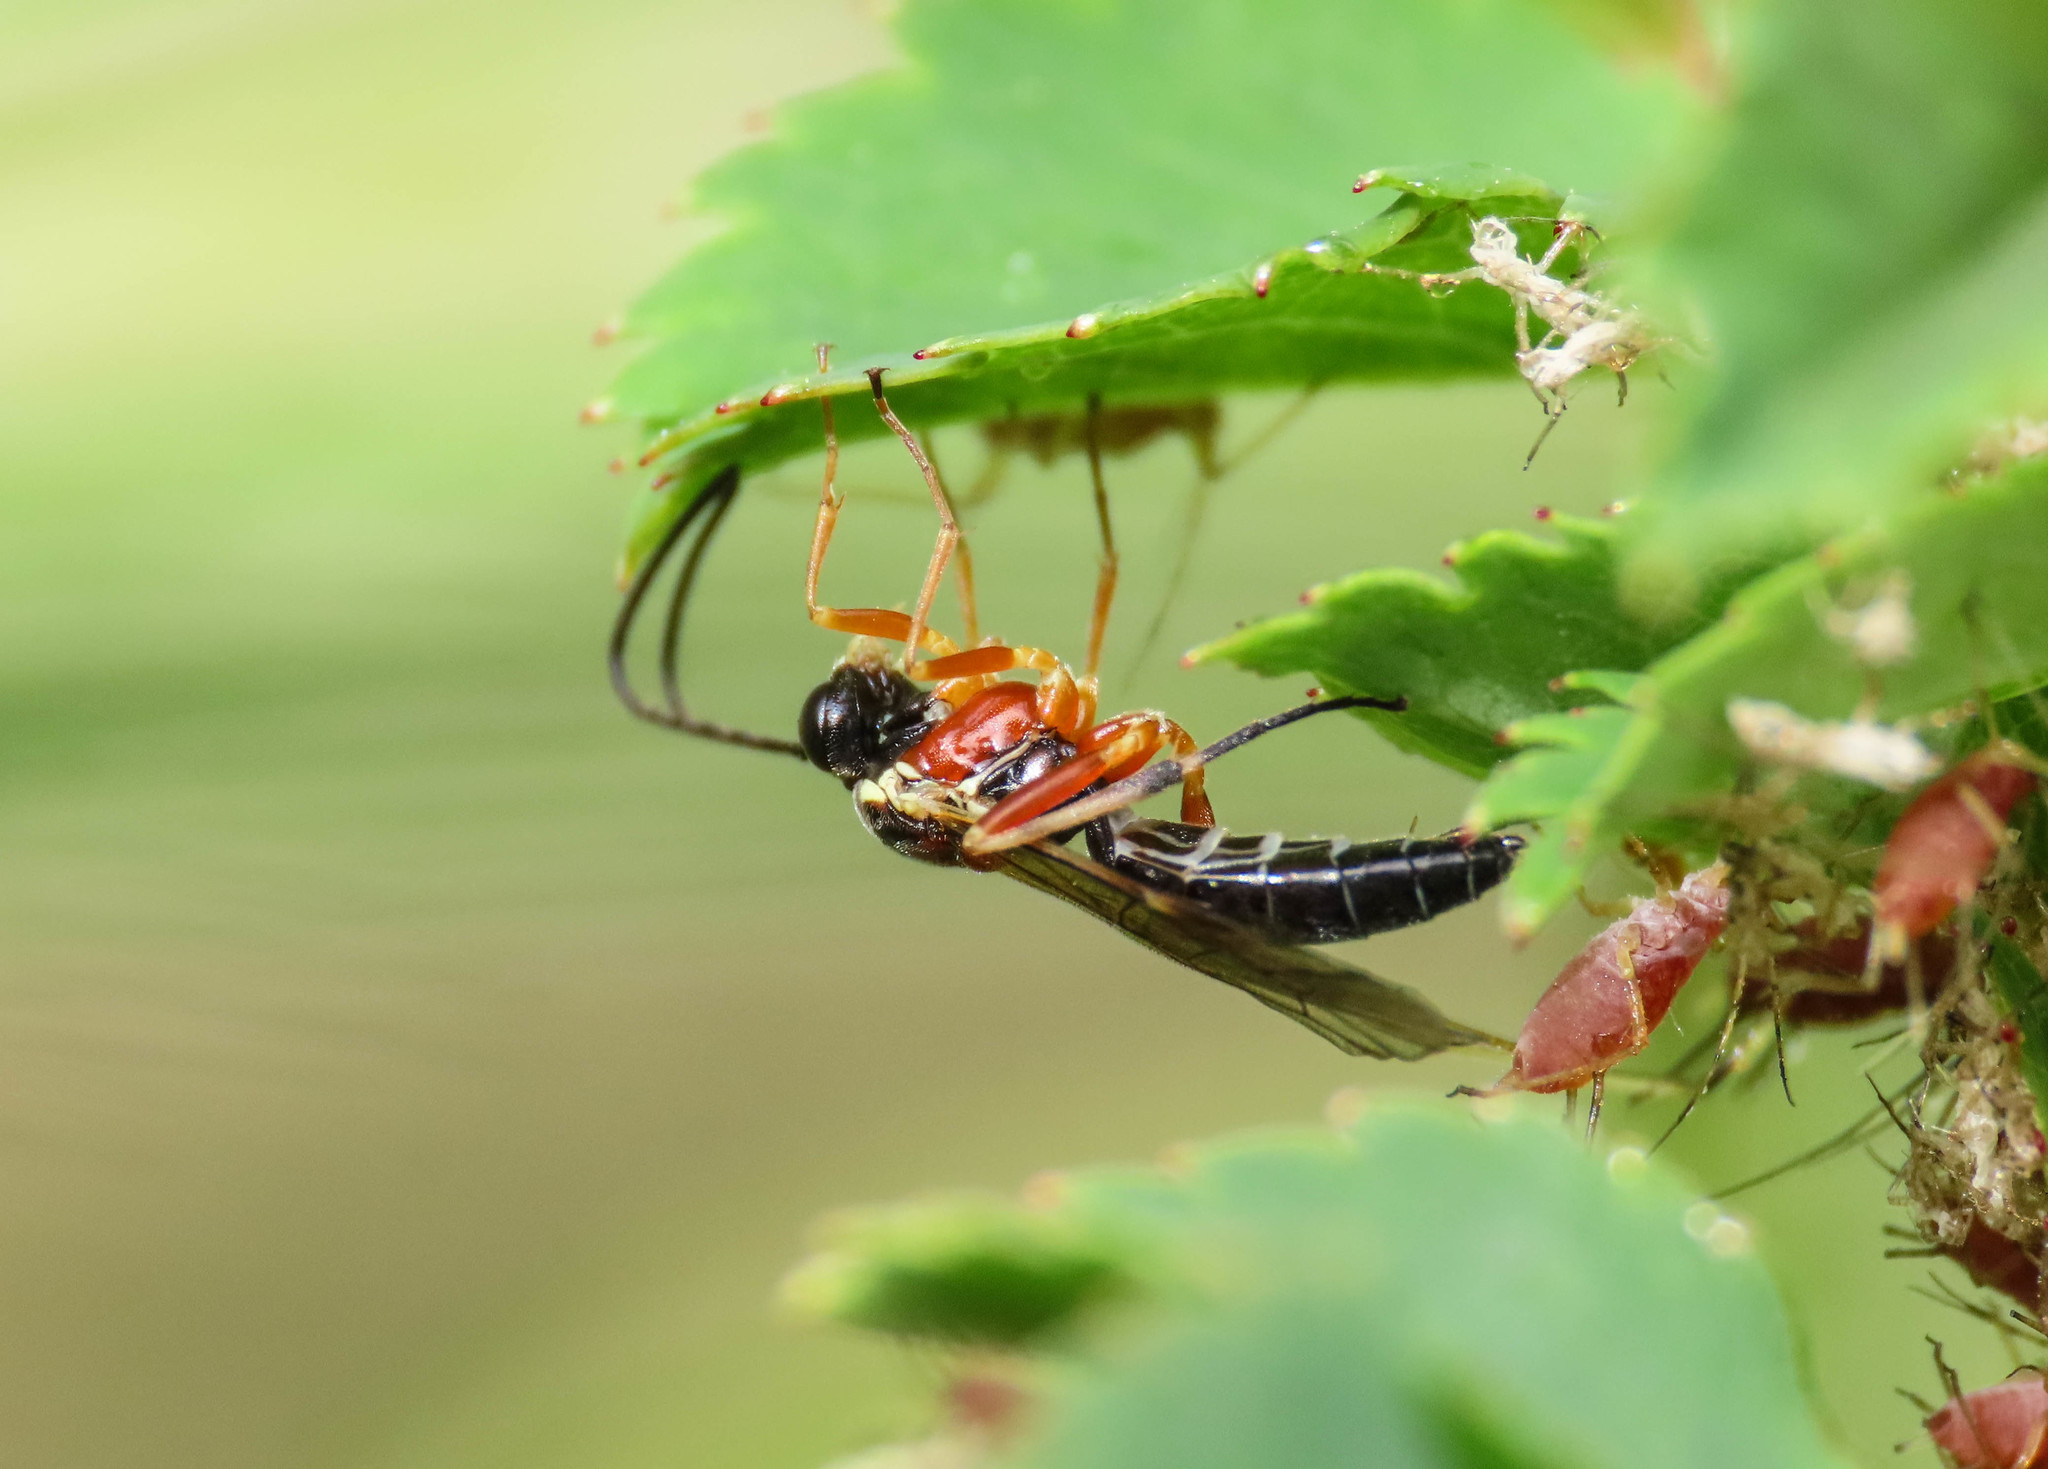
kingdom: Animalia
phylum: Arthropoda
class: Insecta
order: Hymenoptera
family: Ichneumonidae
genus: Diplazon
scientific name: Diplazon pectoratorius
